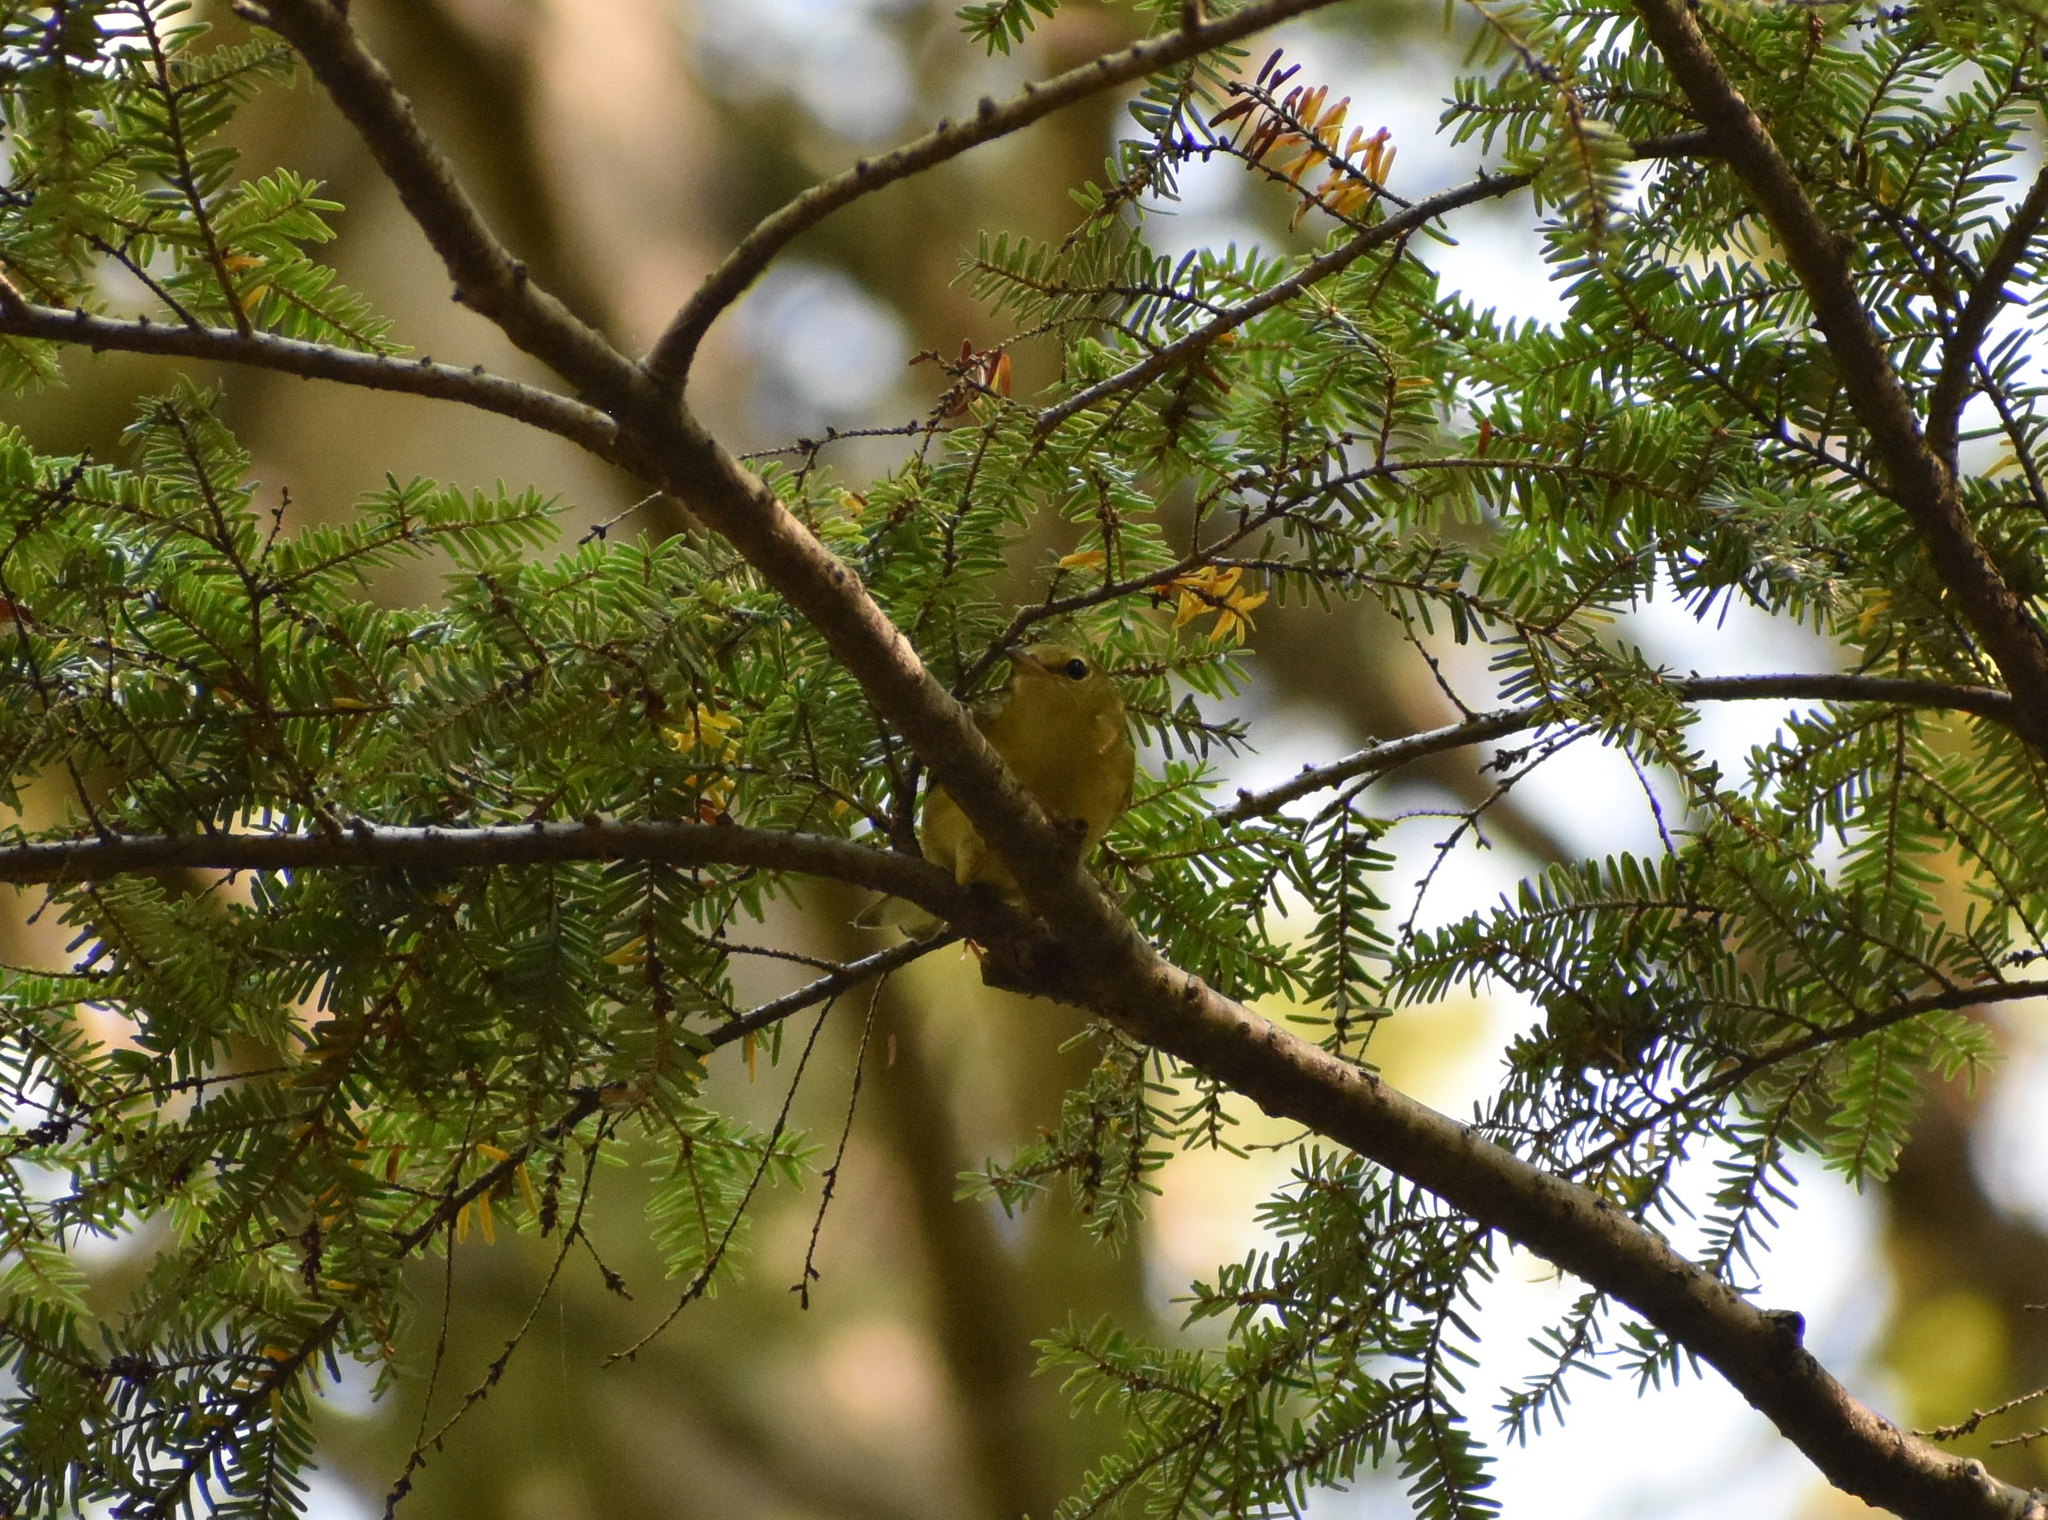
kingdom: Animalia
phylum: Chordata
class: Aves
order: Passeriformes
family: Parulidae
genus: Setophaga
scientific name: Setophaga castanea
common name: Bay-breasted warbler
